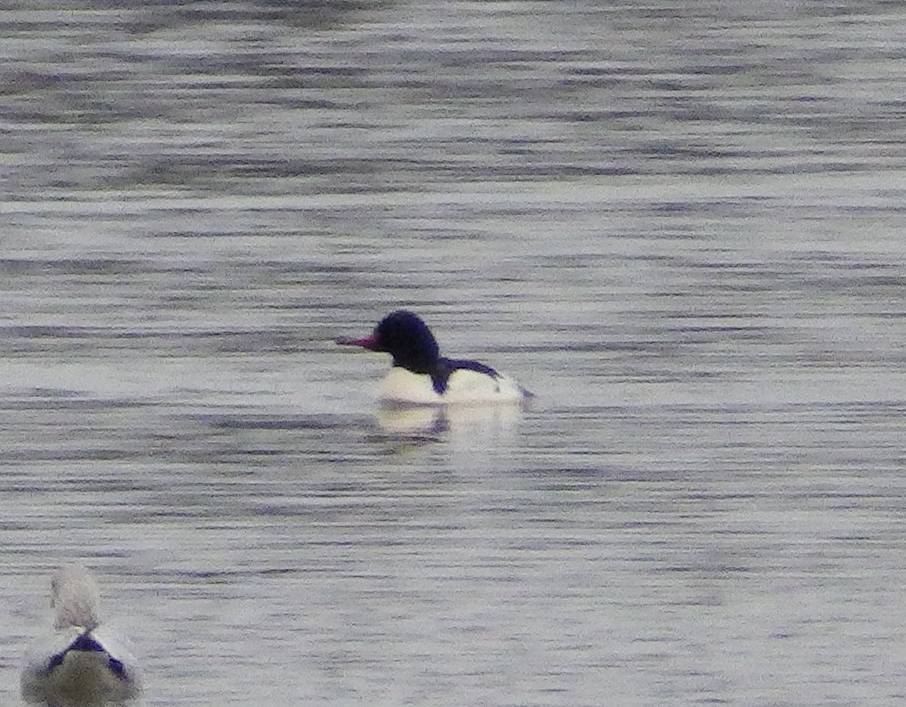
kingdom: Animalia
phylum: Chordata
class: Aves
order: Anseriformes
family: Anatidae
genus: Mergus
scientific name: Mergus merganser
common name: Common merganser
